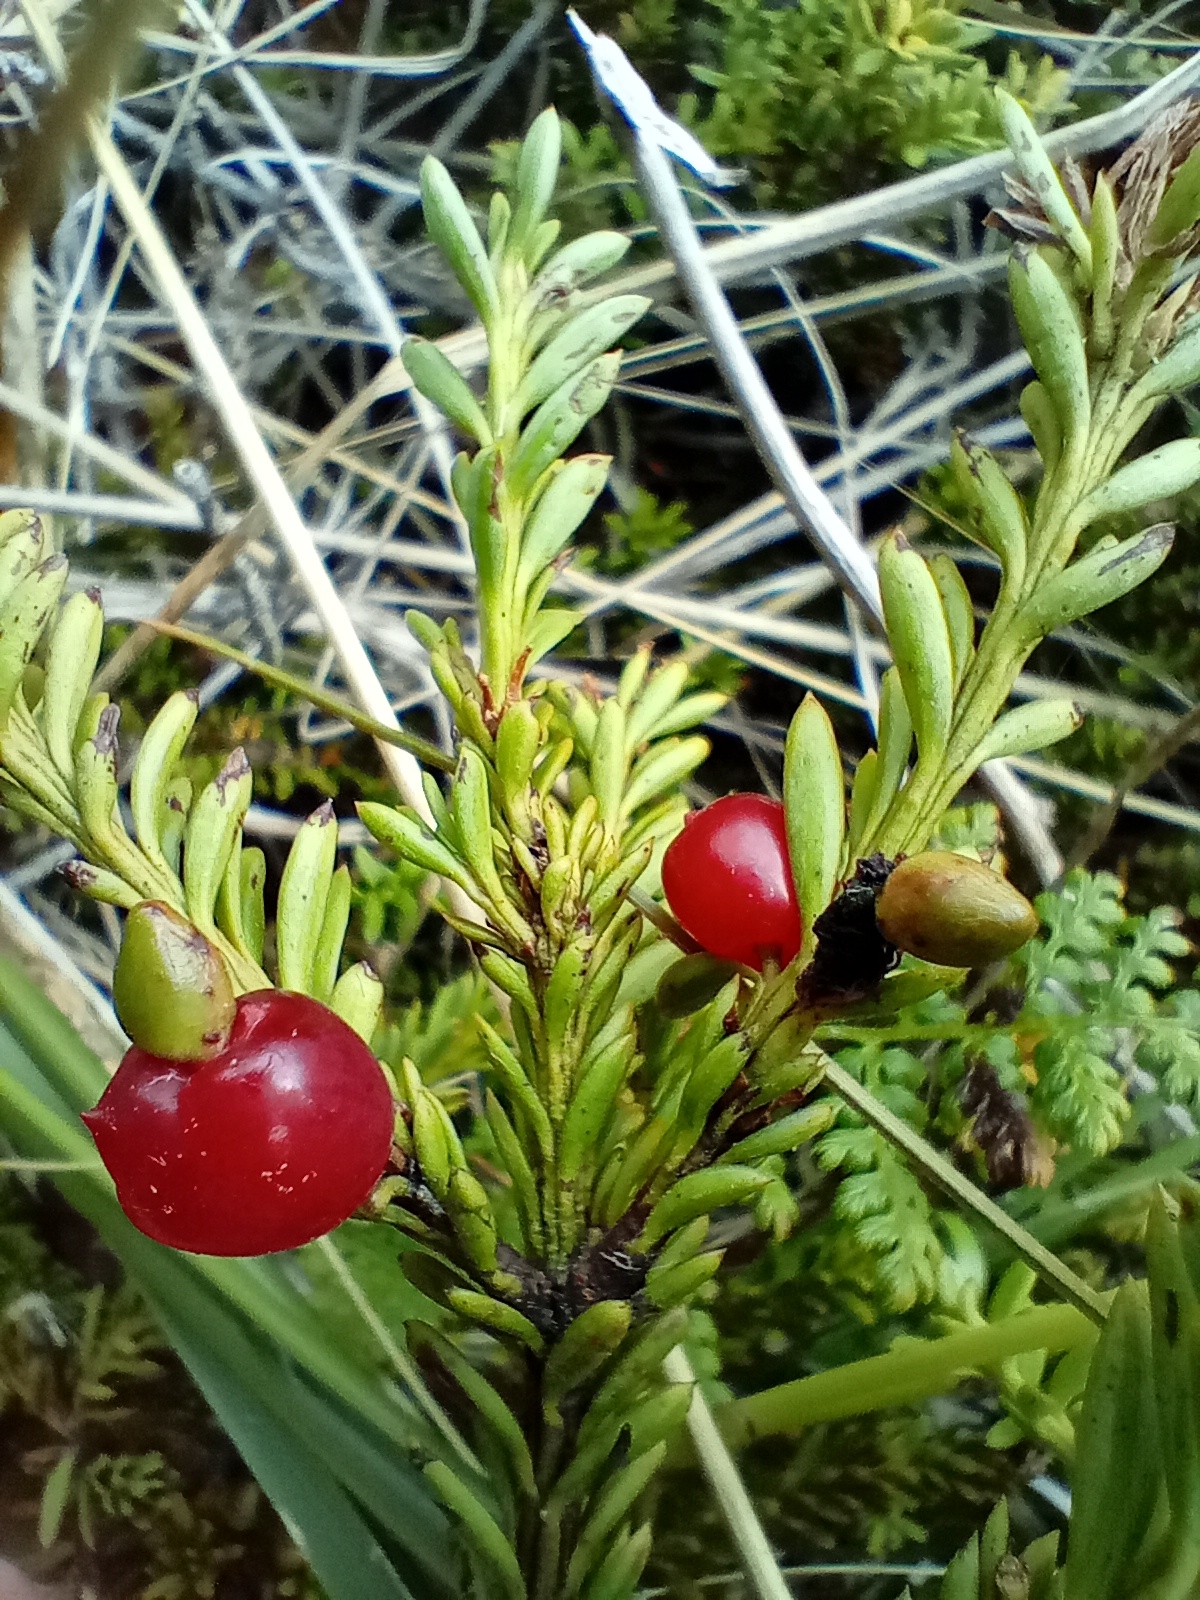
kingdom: Plantae
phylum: Tracheophyta
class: Pinopsida
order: Pinales
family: Podocarpaceae
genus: Podocarpus
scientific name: Podocarpus nivalis
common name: Alpine totara
